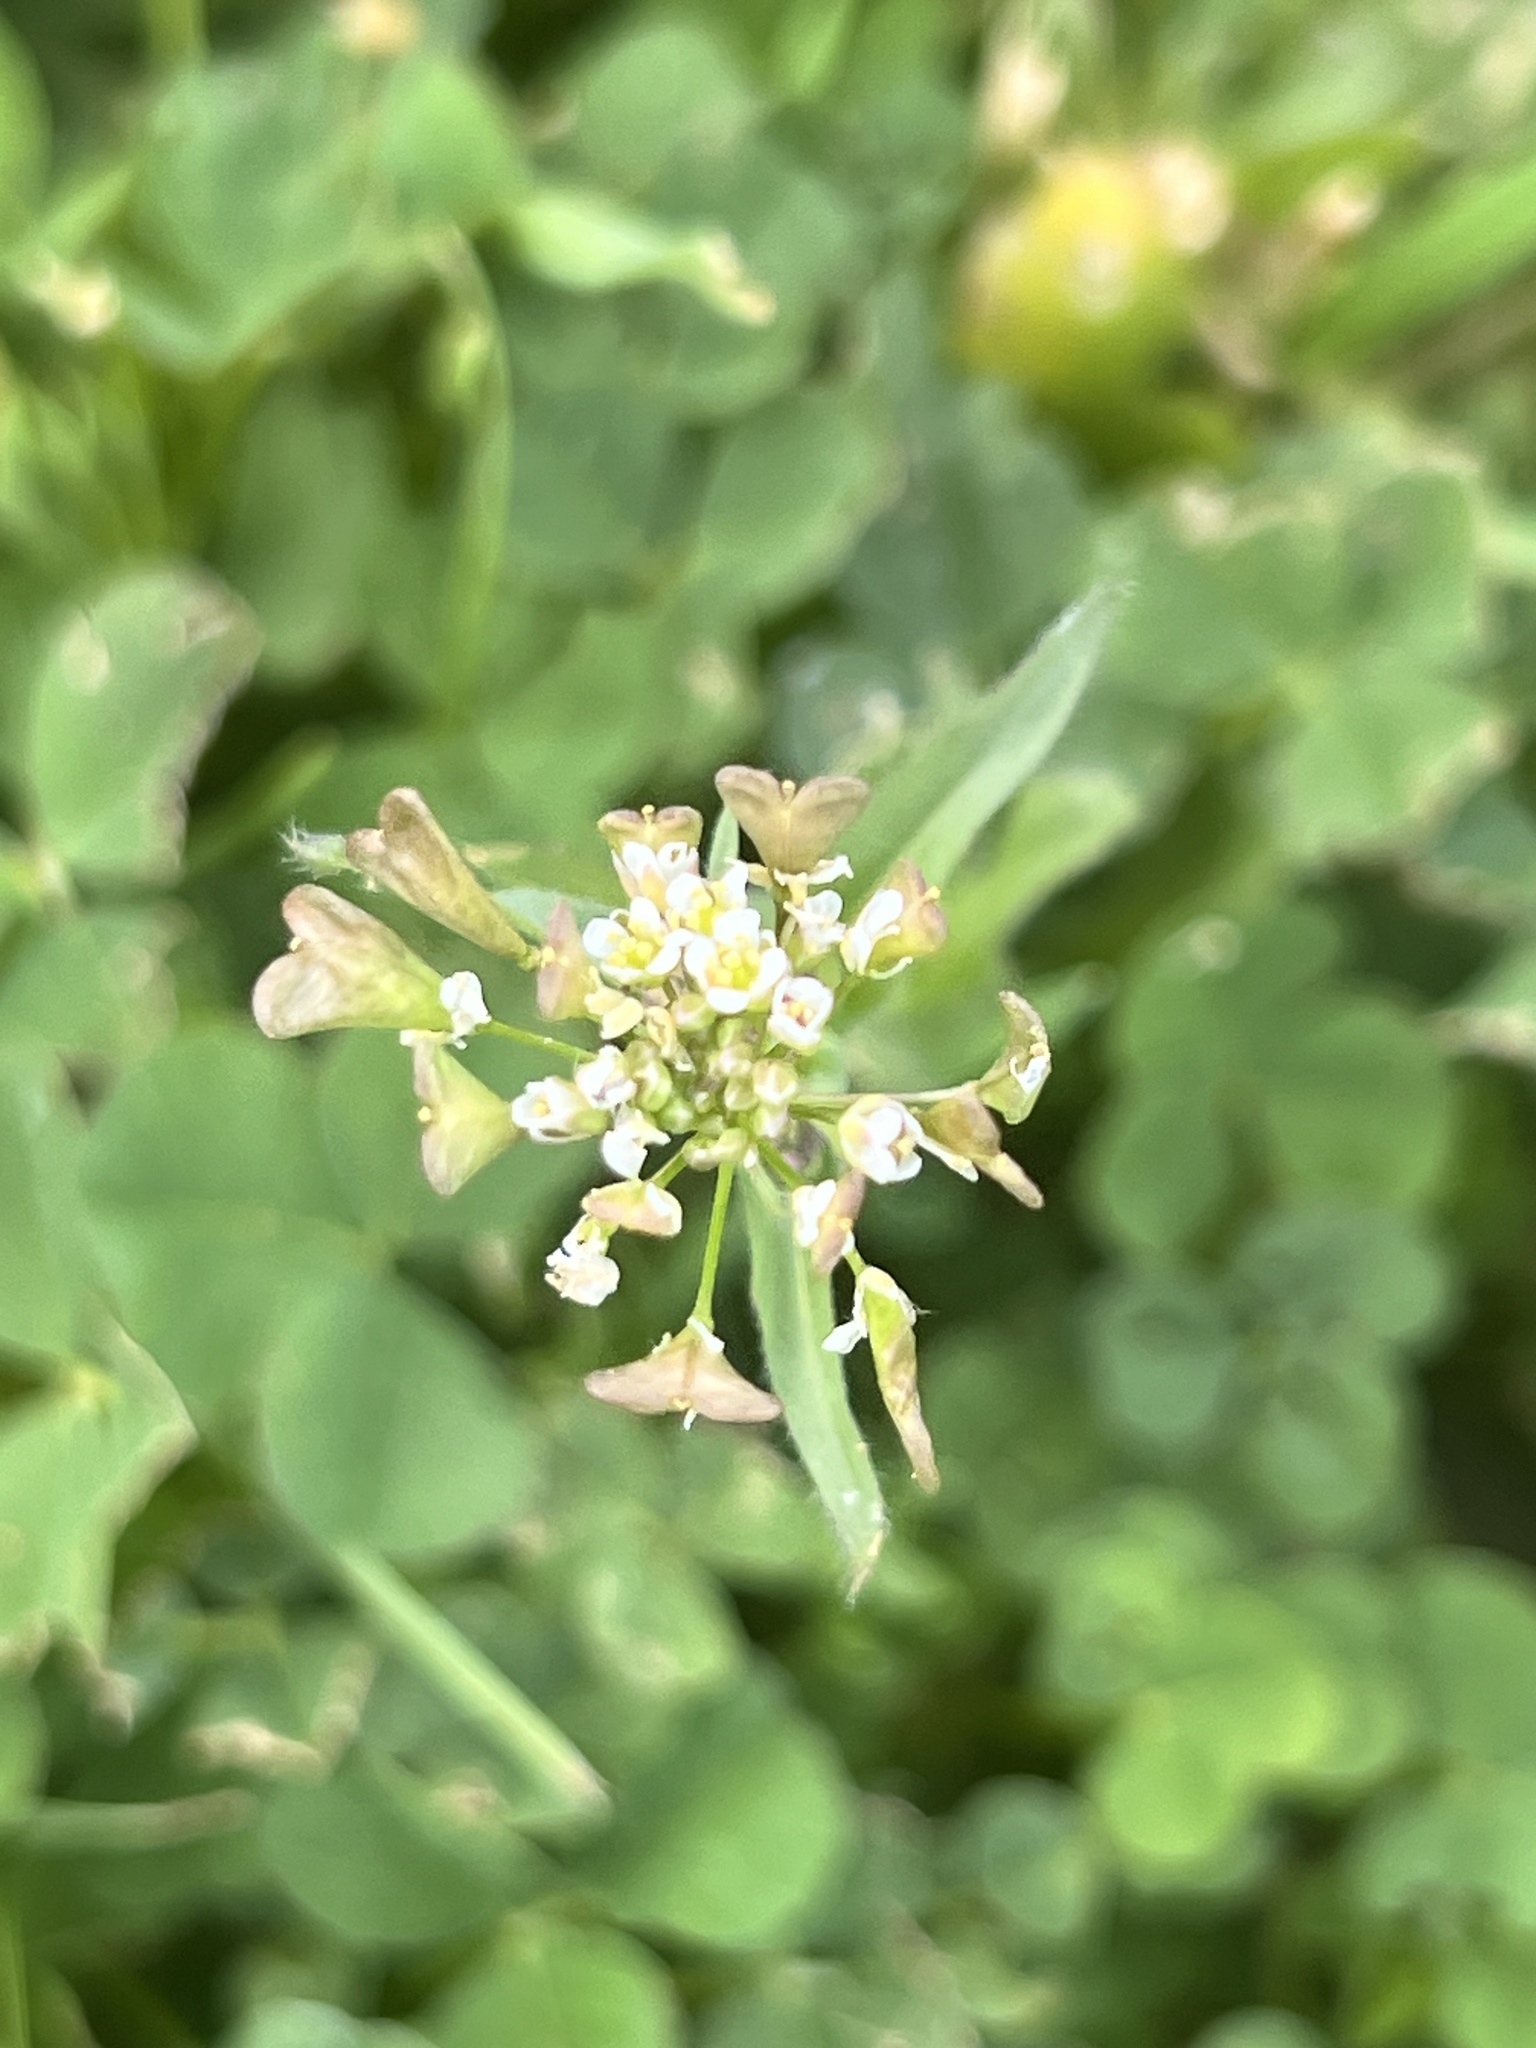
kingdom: Plantae
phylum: Tracheophyta
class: Magnoliopsida
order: Brassicales
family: Brassicaceae
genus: Capsella
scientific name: Capsella bursa-pastoris
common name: Shepherd's purse
